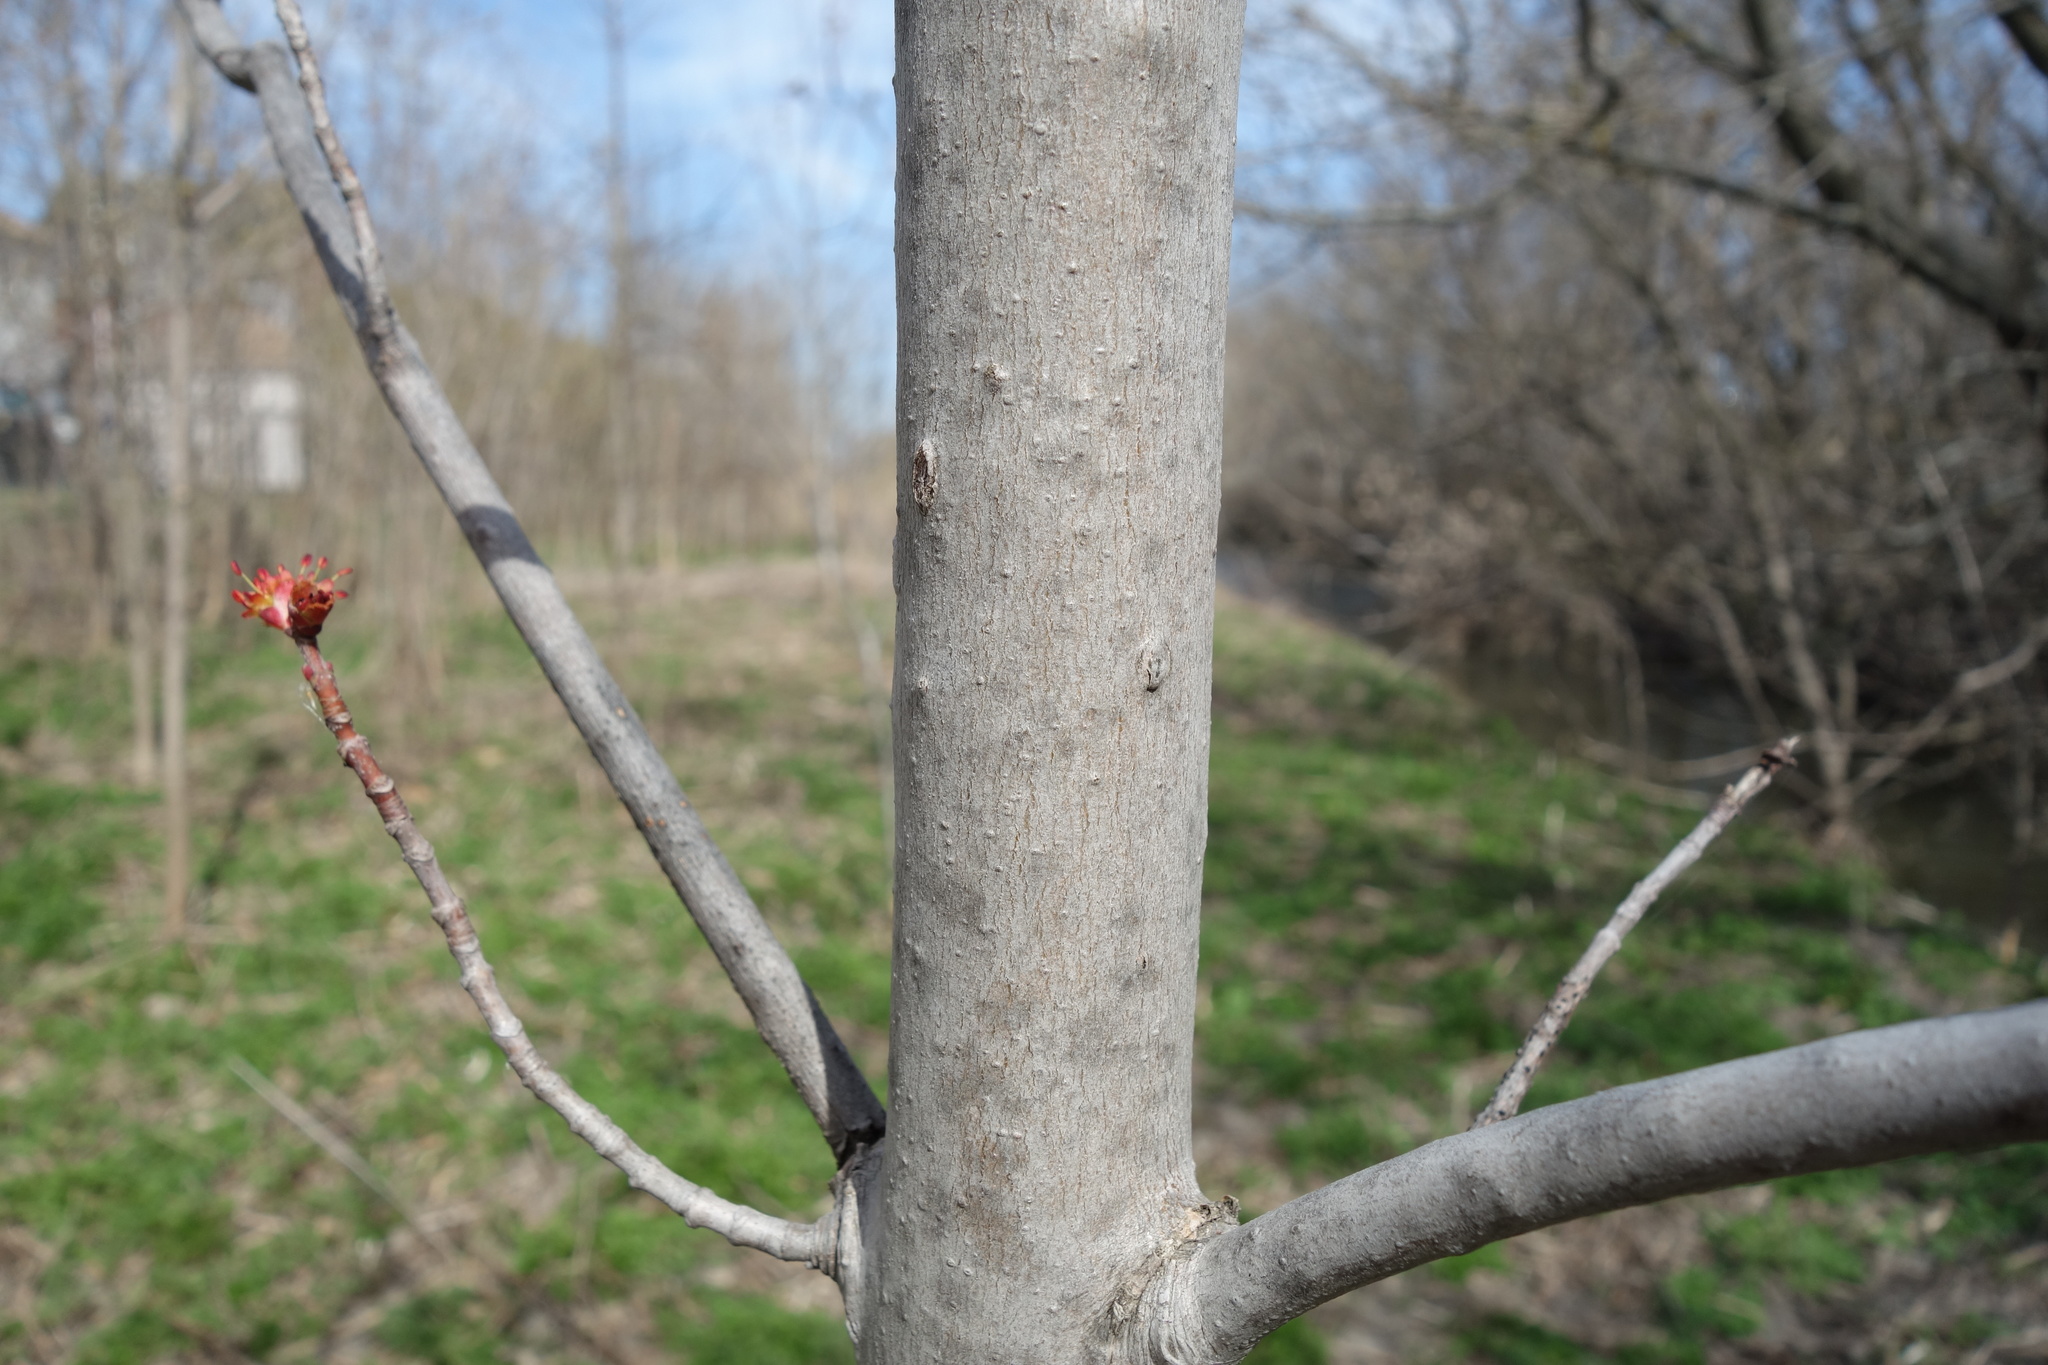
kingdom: Plantae
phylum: Tracheophyta
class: Magnoliopsida
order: Sapindales
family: Sapindaceae
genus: Acer
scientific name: Acer rubrum
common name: Red maple
